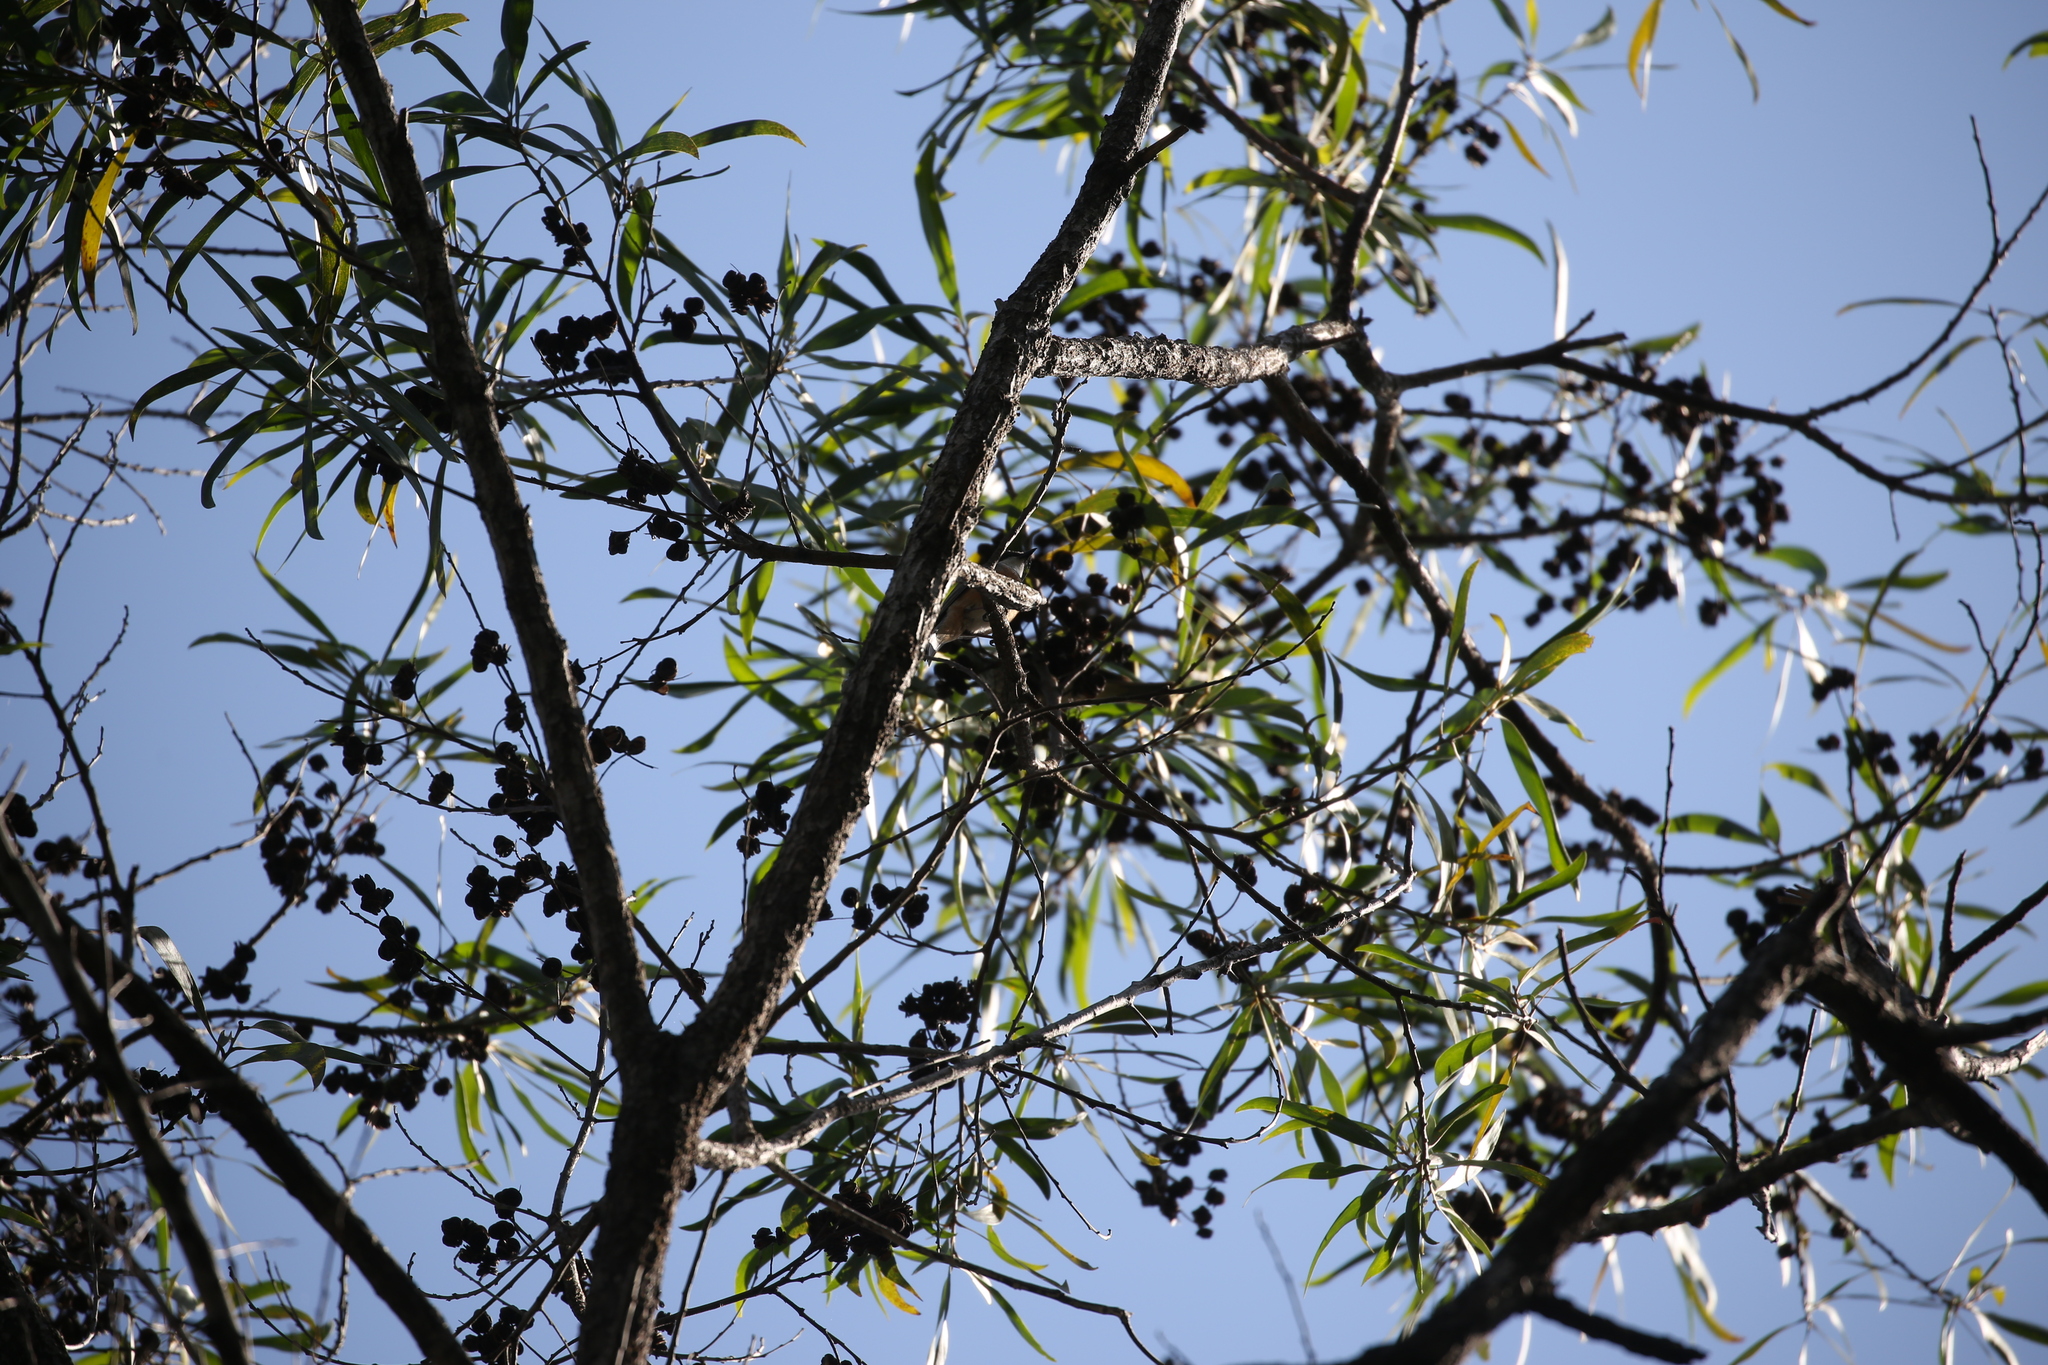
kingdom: Animalia
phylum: Chordata
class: Aves
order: Passeriformes
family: Pachycephalidae
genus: Pachycephala
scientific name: Pachycephala rufiventris
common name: Rufous whistler
